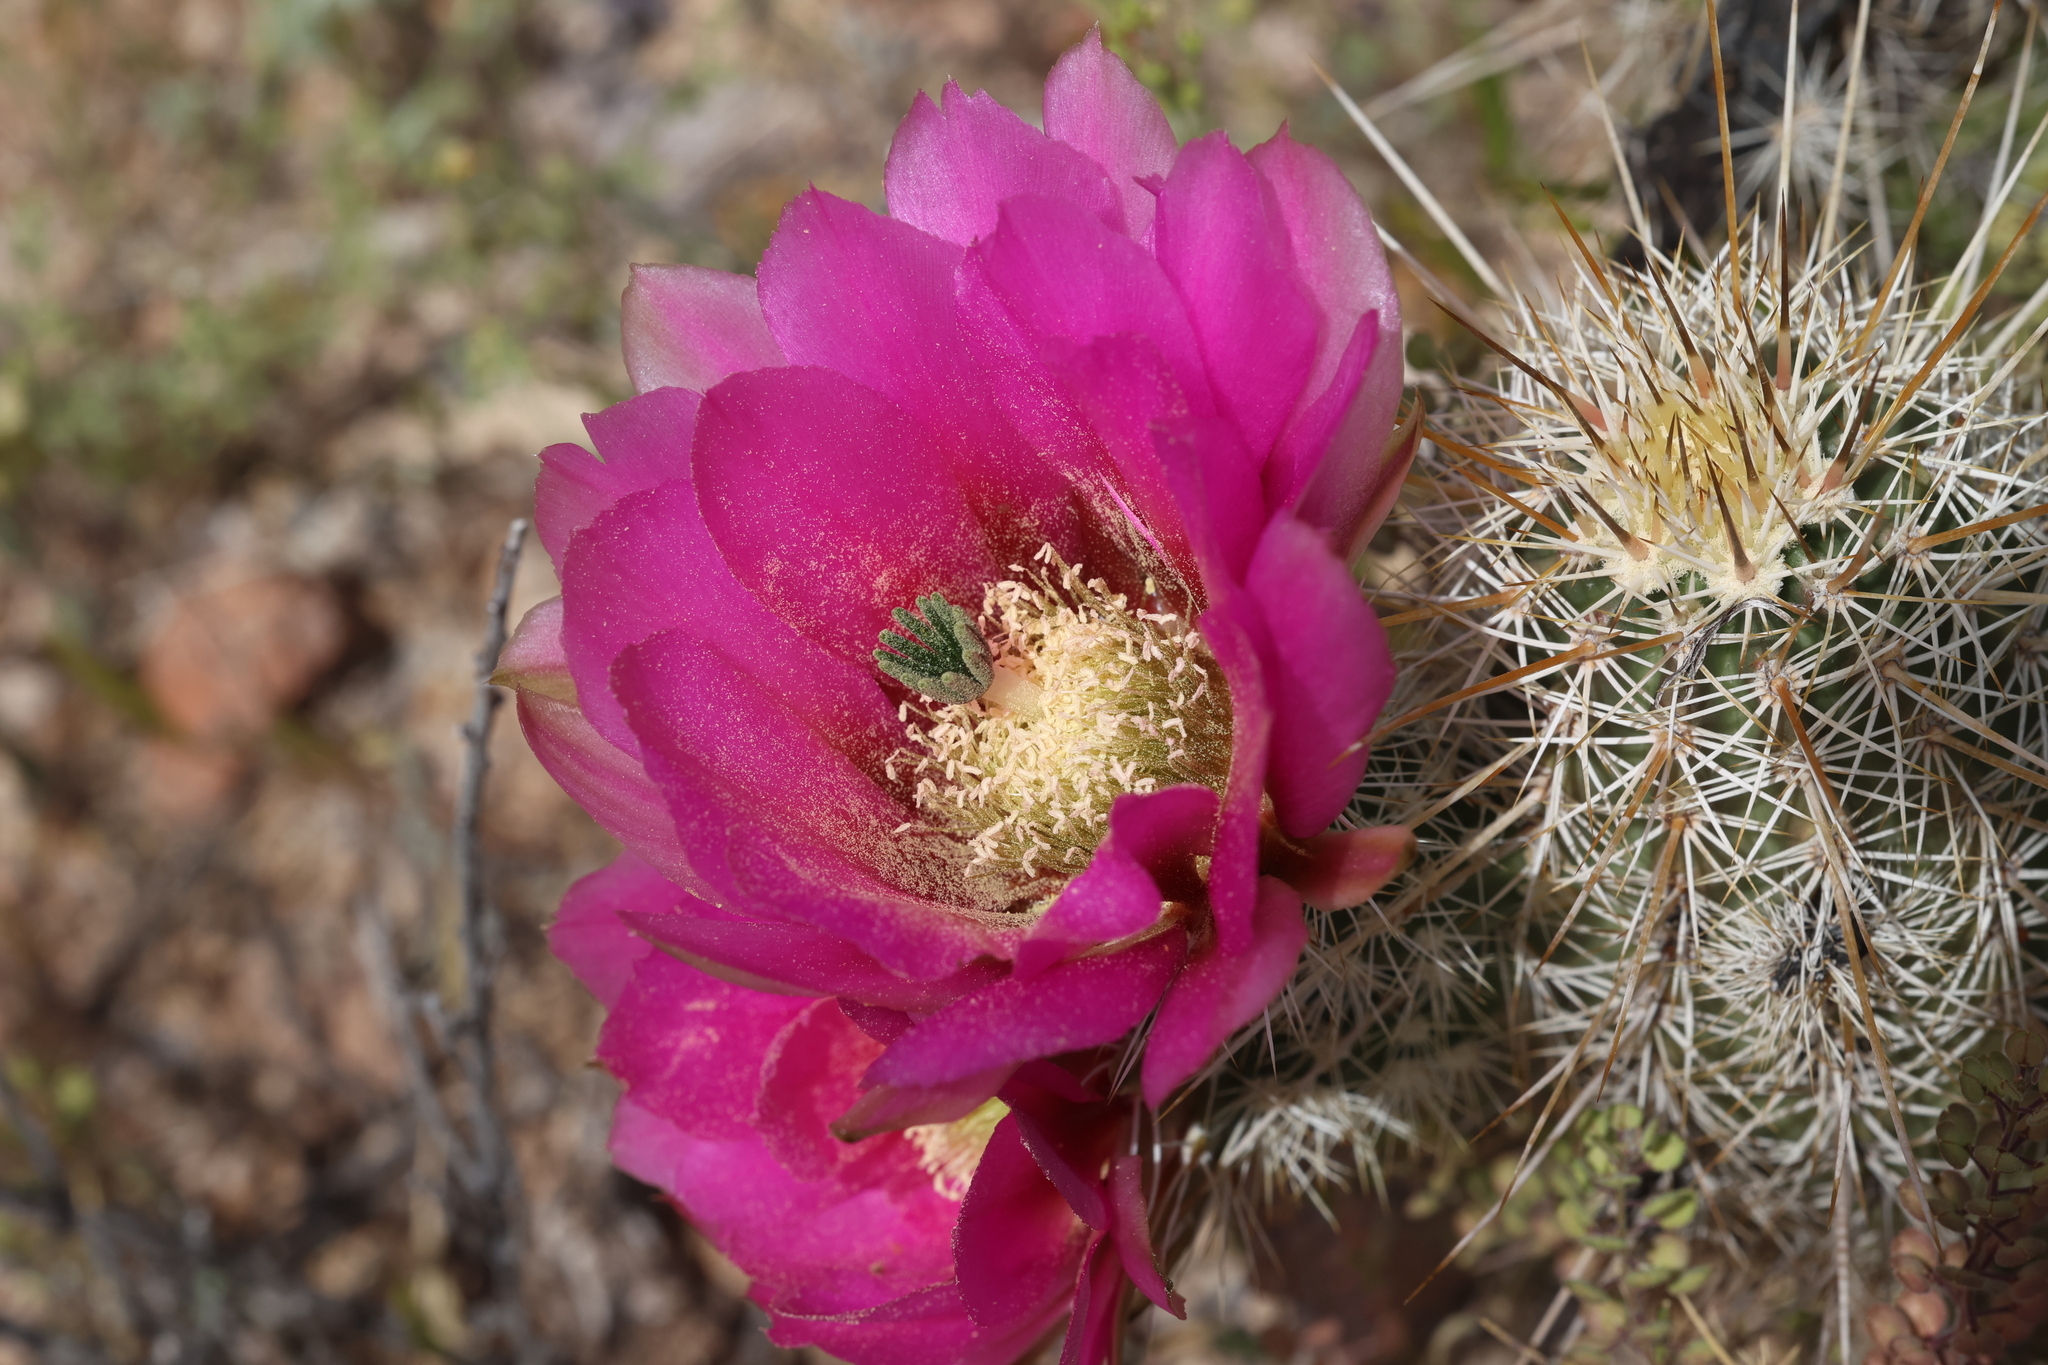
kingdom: Plantae
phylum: Tracheophyta
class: Magnoliopsida
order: Caryophyllales
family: Cactaceae
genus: Echinocereus
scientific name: Echinocereus engelmannii
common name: Engelmann's hedgehog cactus
